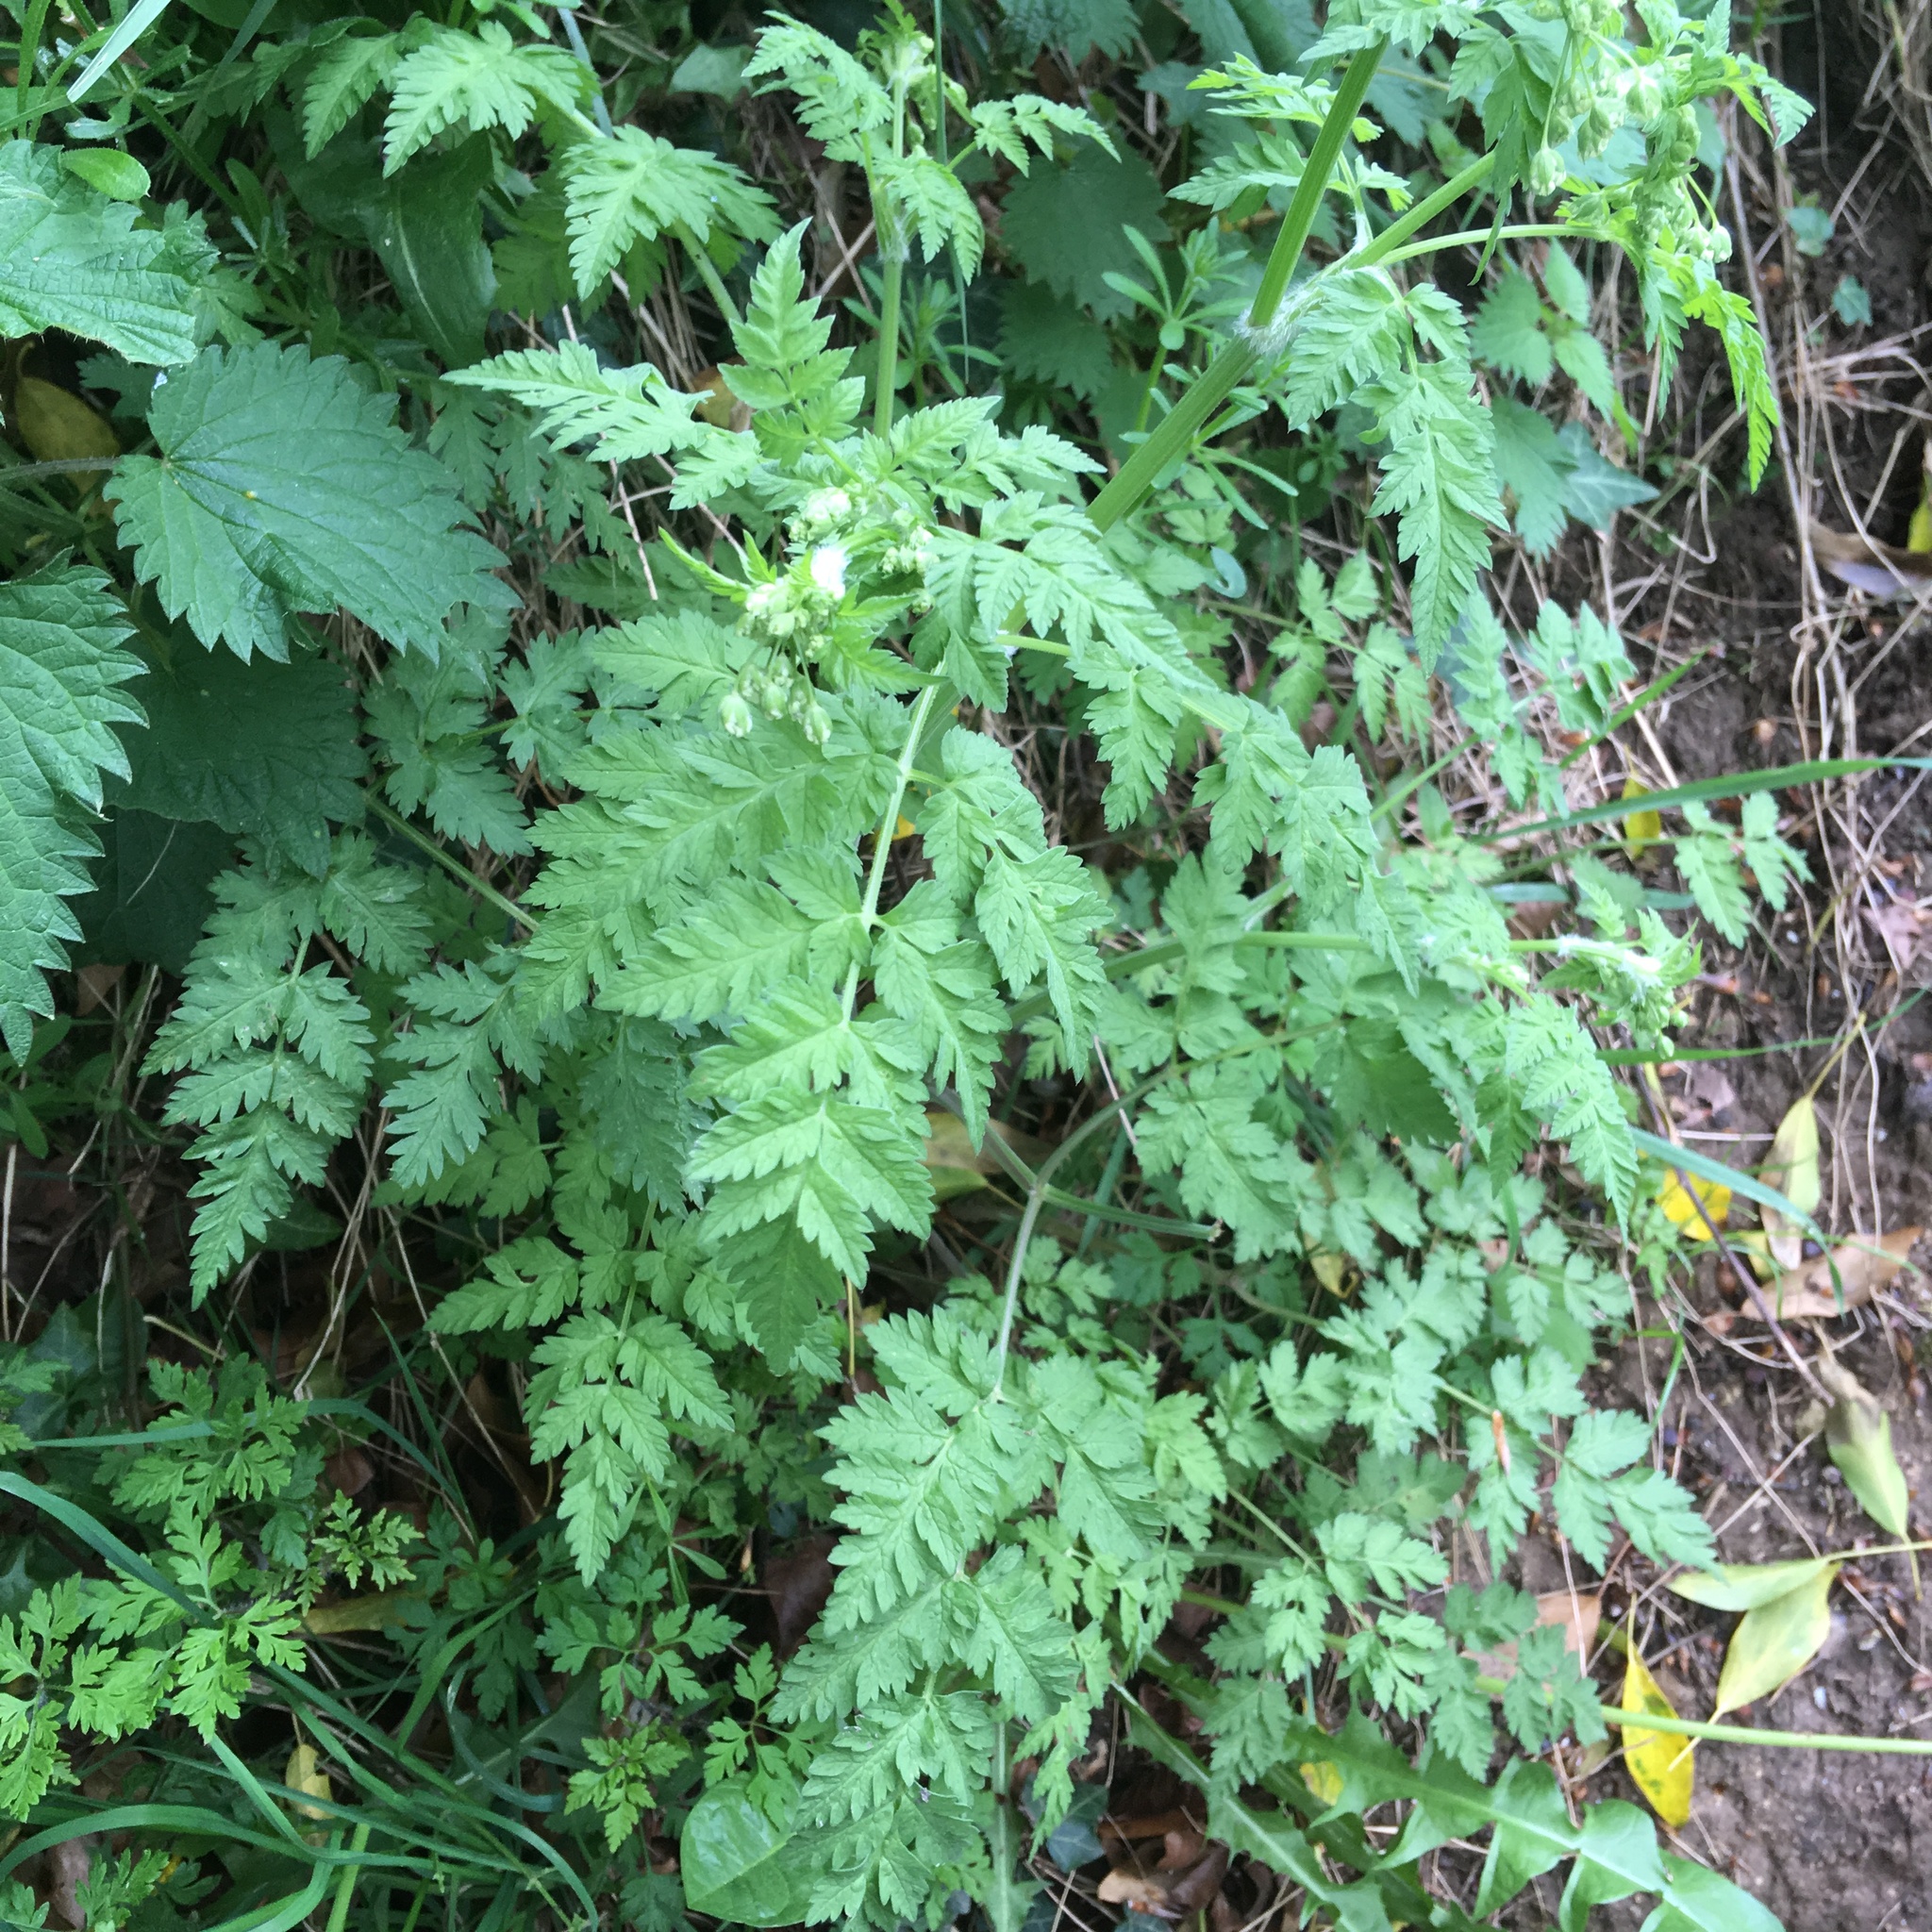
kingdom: Plantae
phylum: Tracheophyta
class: Magnoliopsida
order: Apiales
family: Apiaceae
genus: Anthriscus
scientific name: Anthriscus sylvestris
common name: Cow parsley
